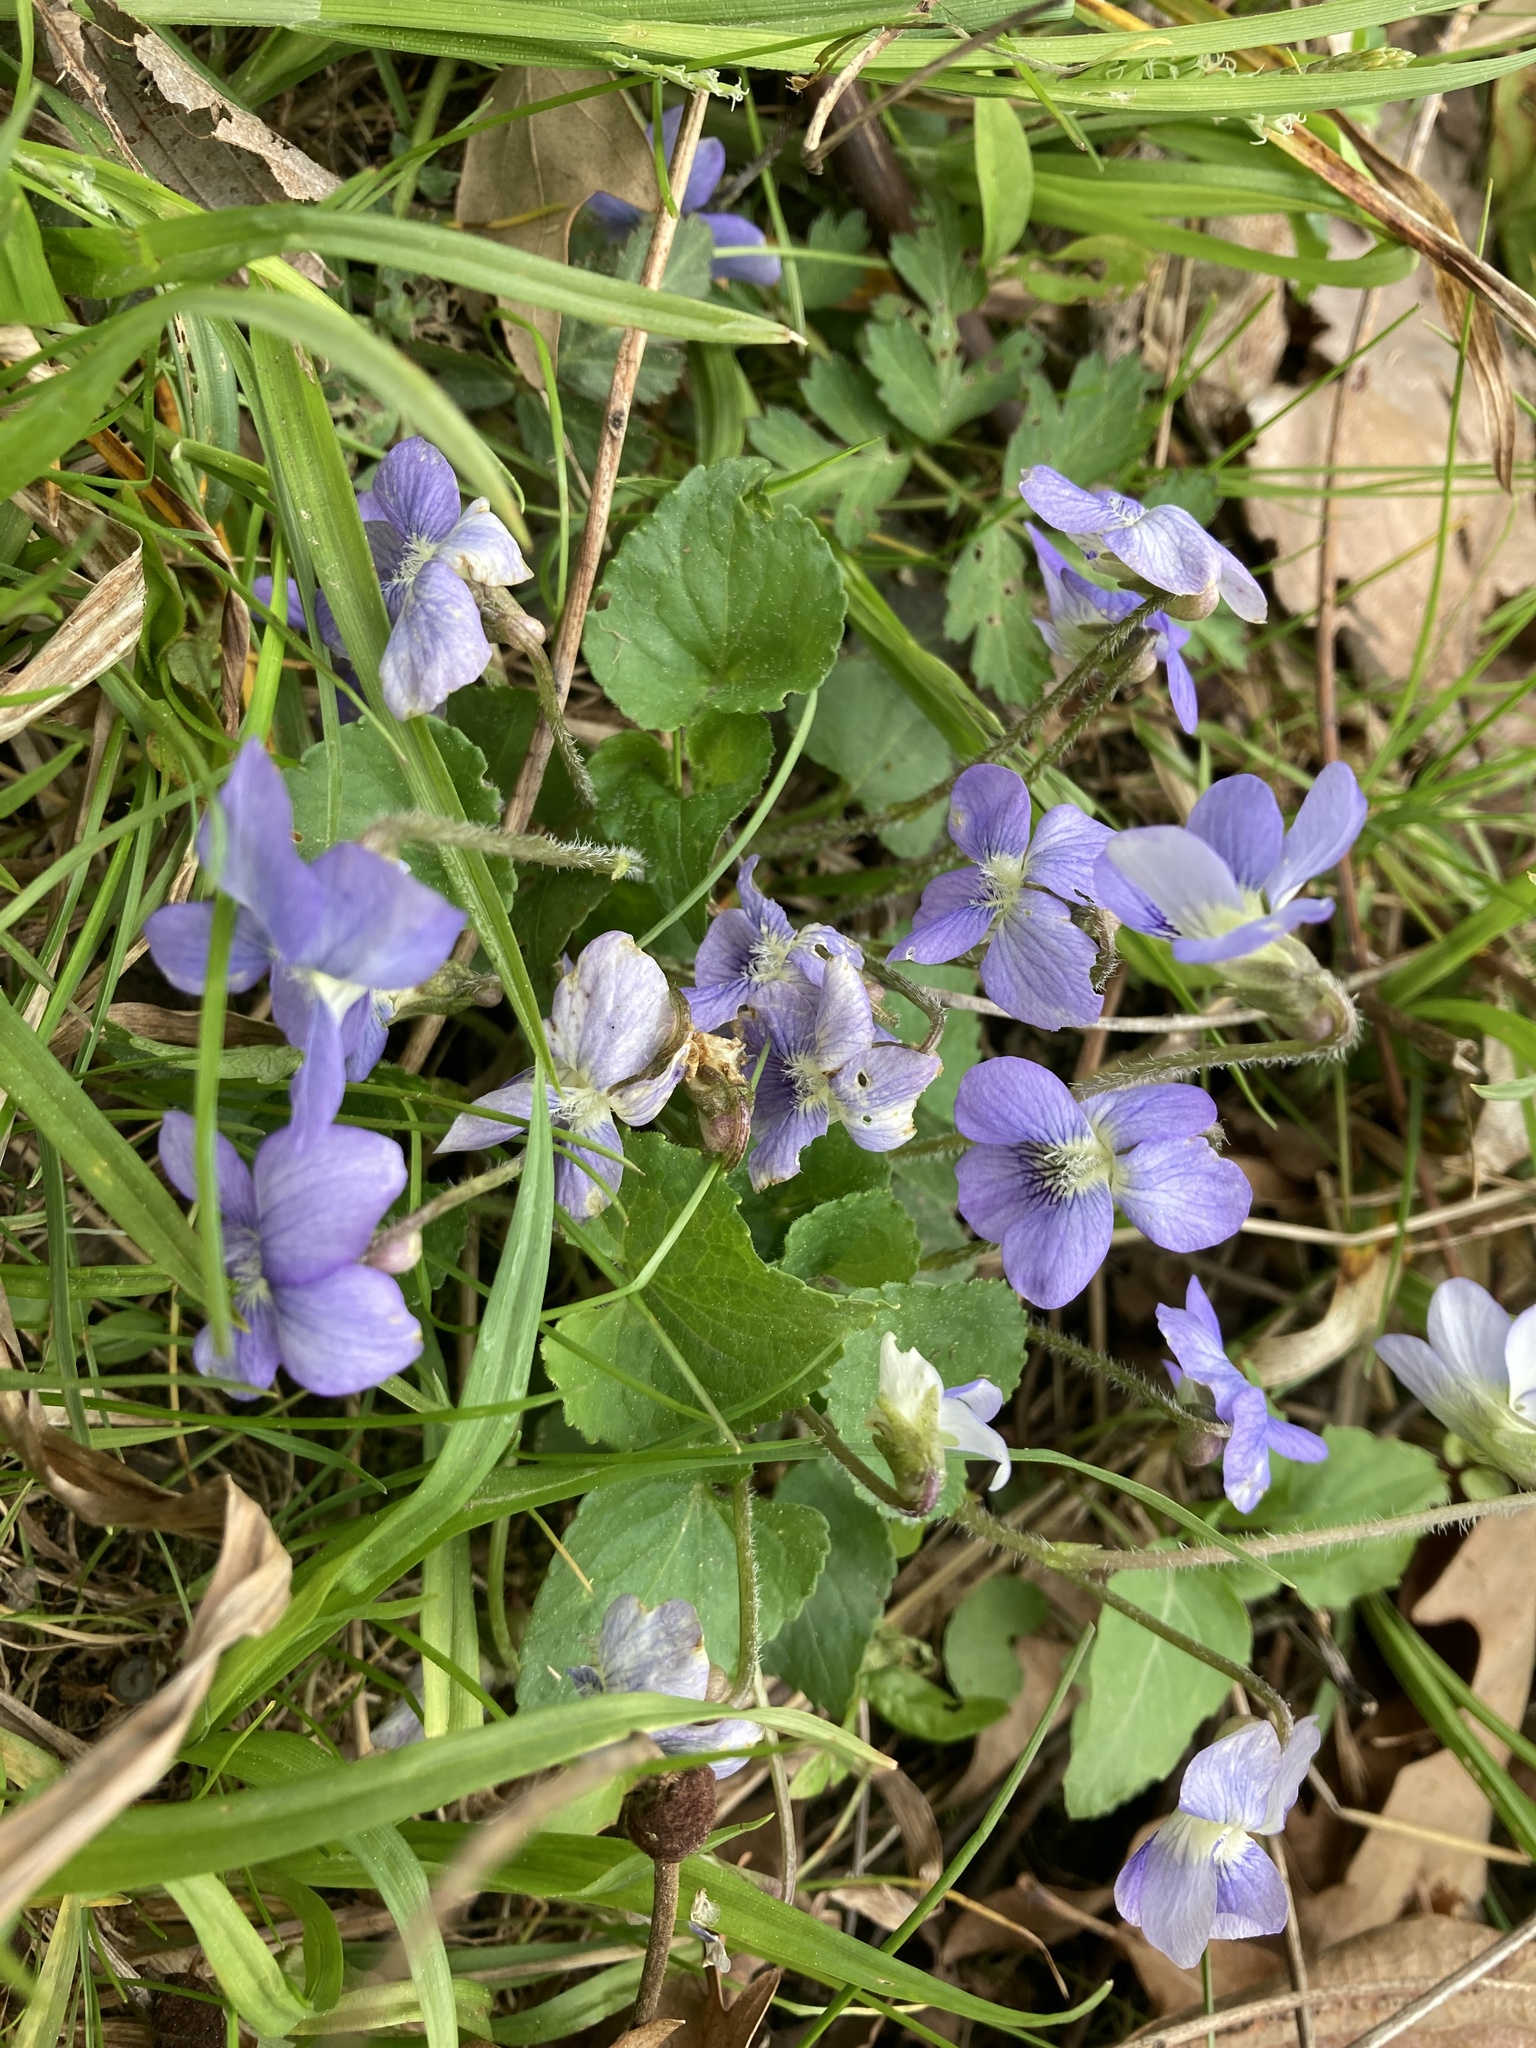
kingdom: Plantae
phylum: Tracheophyta
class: Magnoliopsida
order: Malpighiales
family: Violaceae
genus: Viola
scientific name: Viola sororia
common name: Dooryard violet
